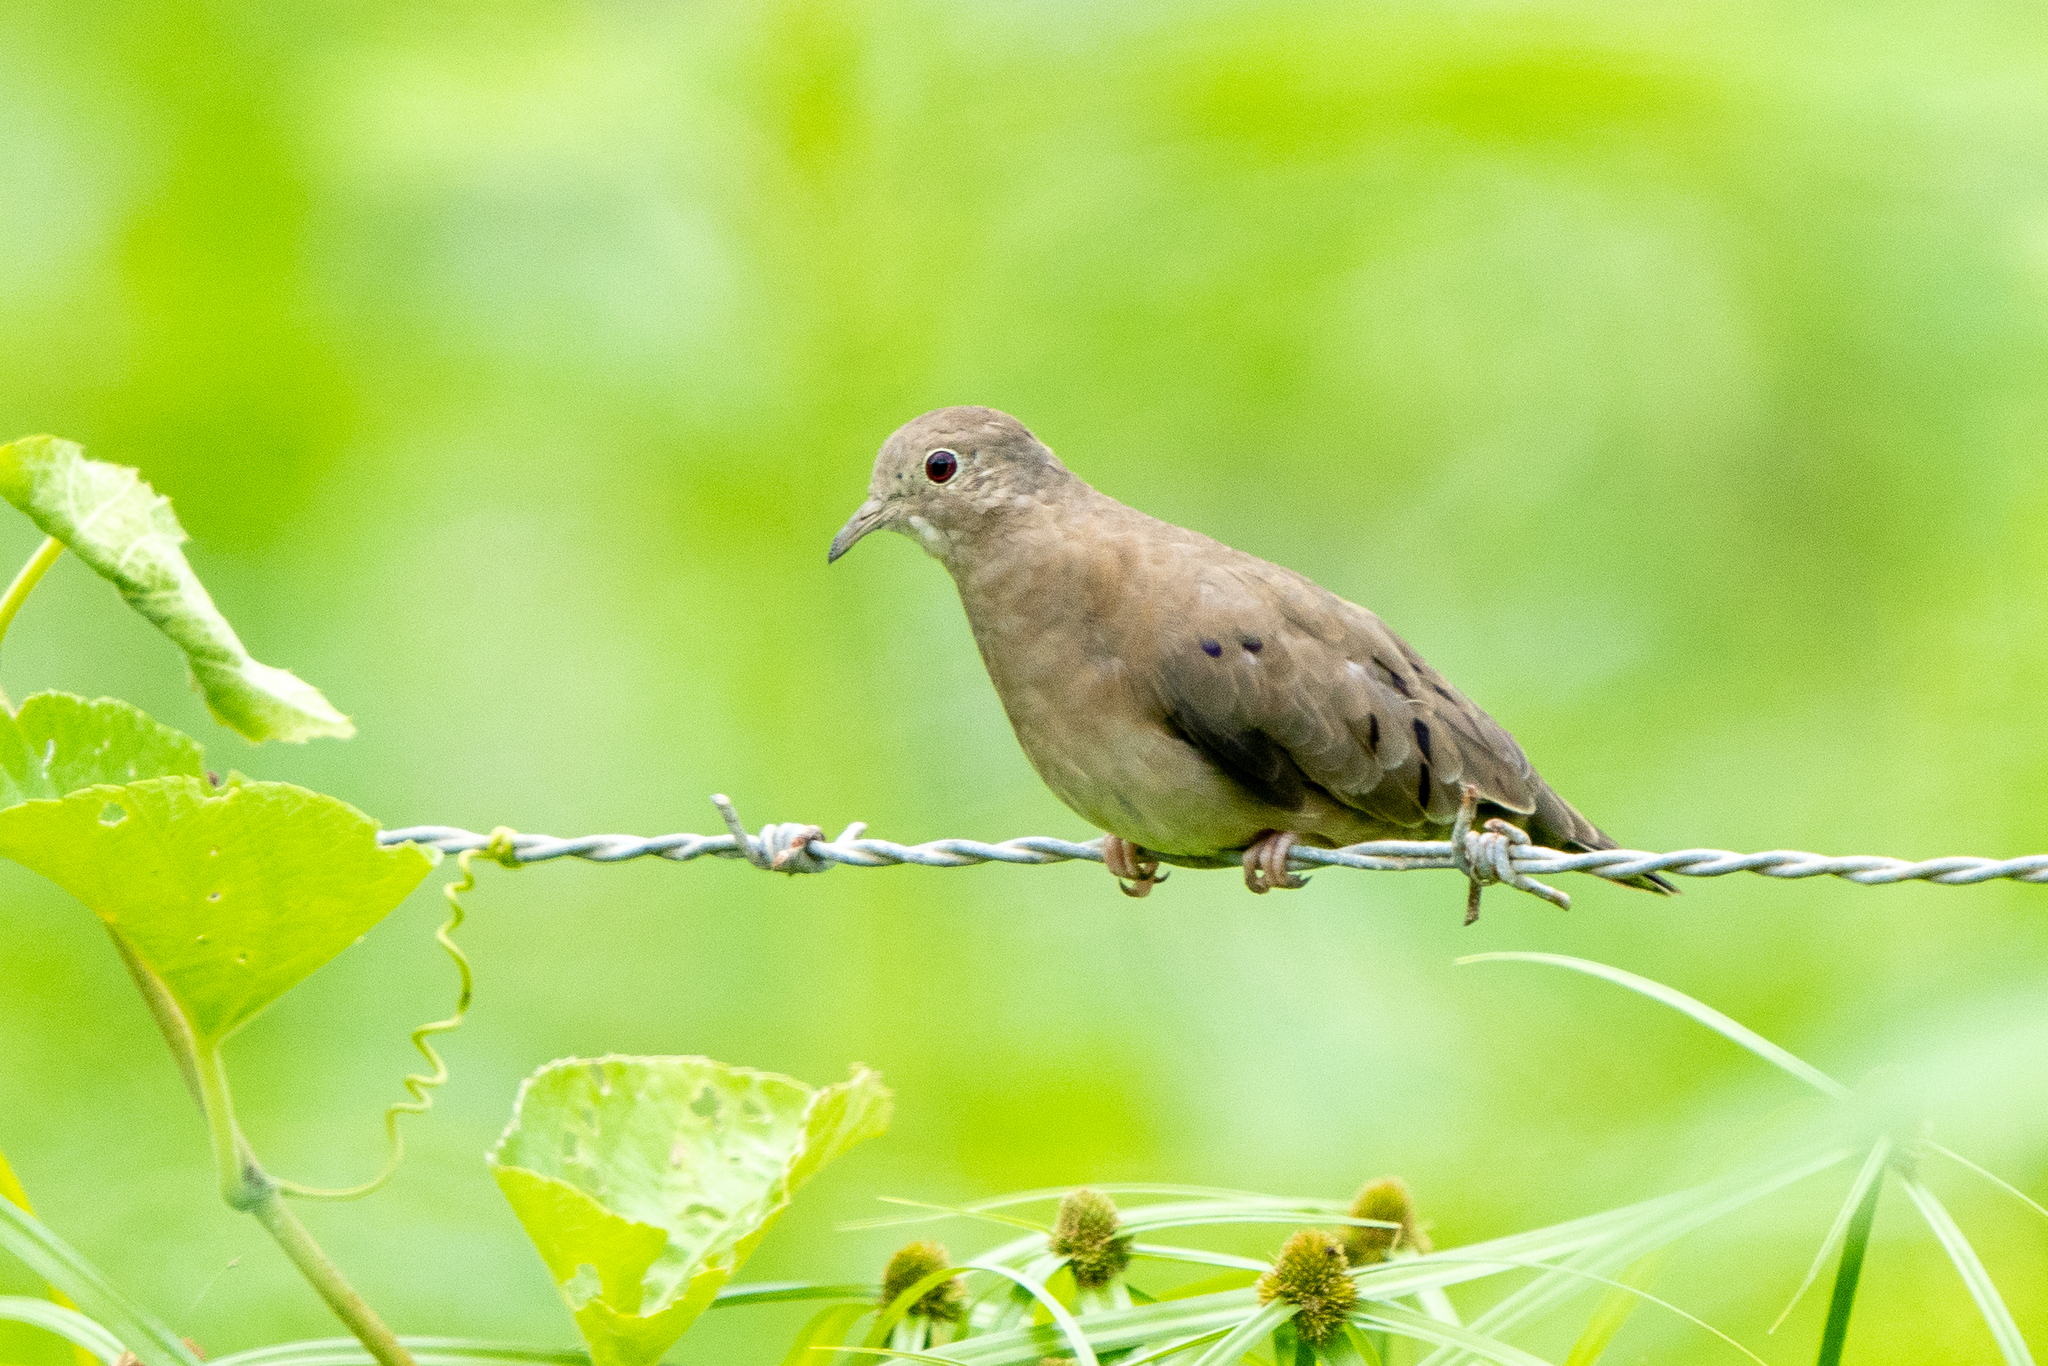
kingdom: Animalia
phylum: Chordata
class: Aves
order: Columbiformes
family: Columbidae
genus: Columbina
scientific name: Columbina minuta
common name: Plain-breasted ground dove
